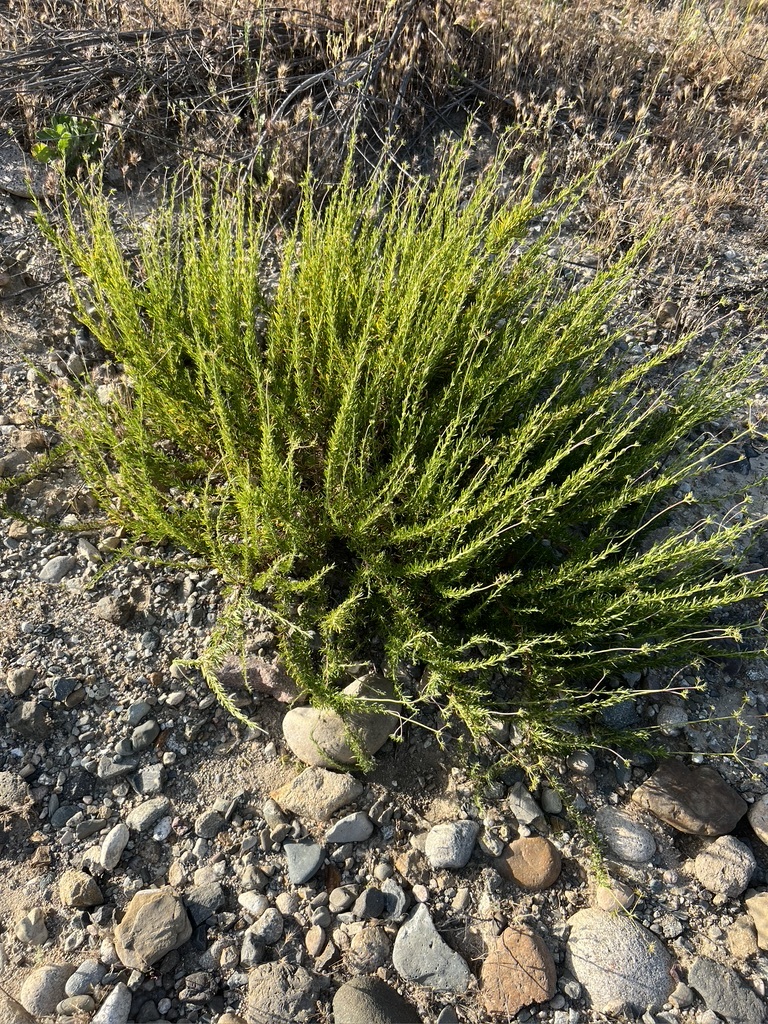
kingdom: Plantae
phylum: Tracheophyta
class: Magnoliopsida
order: Caryophyllales
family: Polygonaceae
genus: Eriogonum
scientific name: Eriogonum fasciculatum
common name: California wild buckwheat
